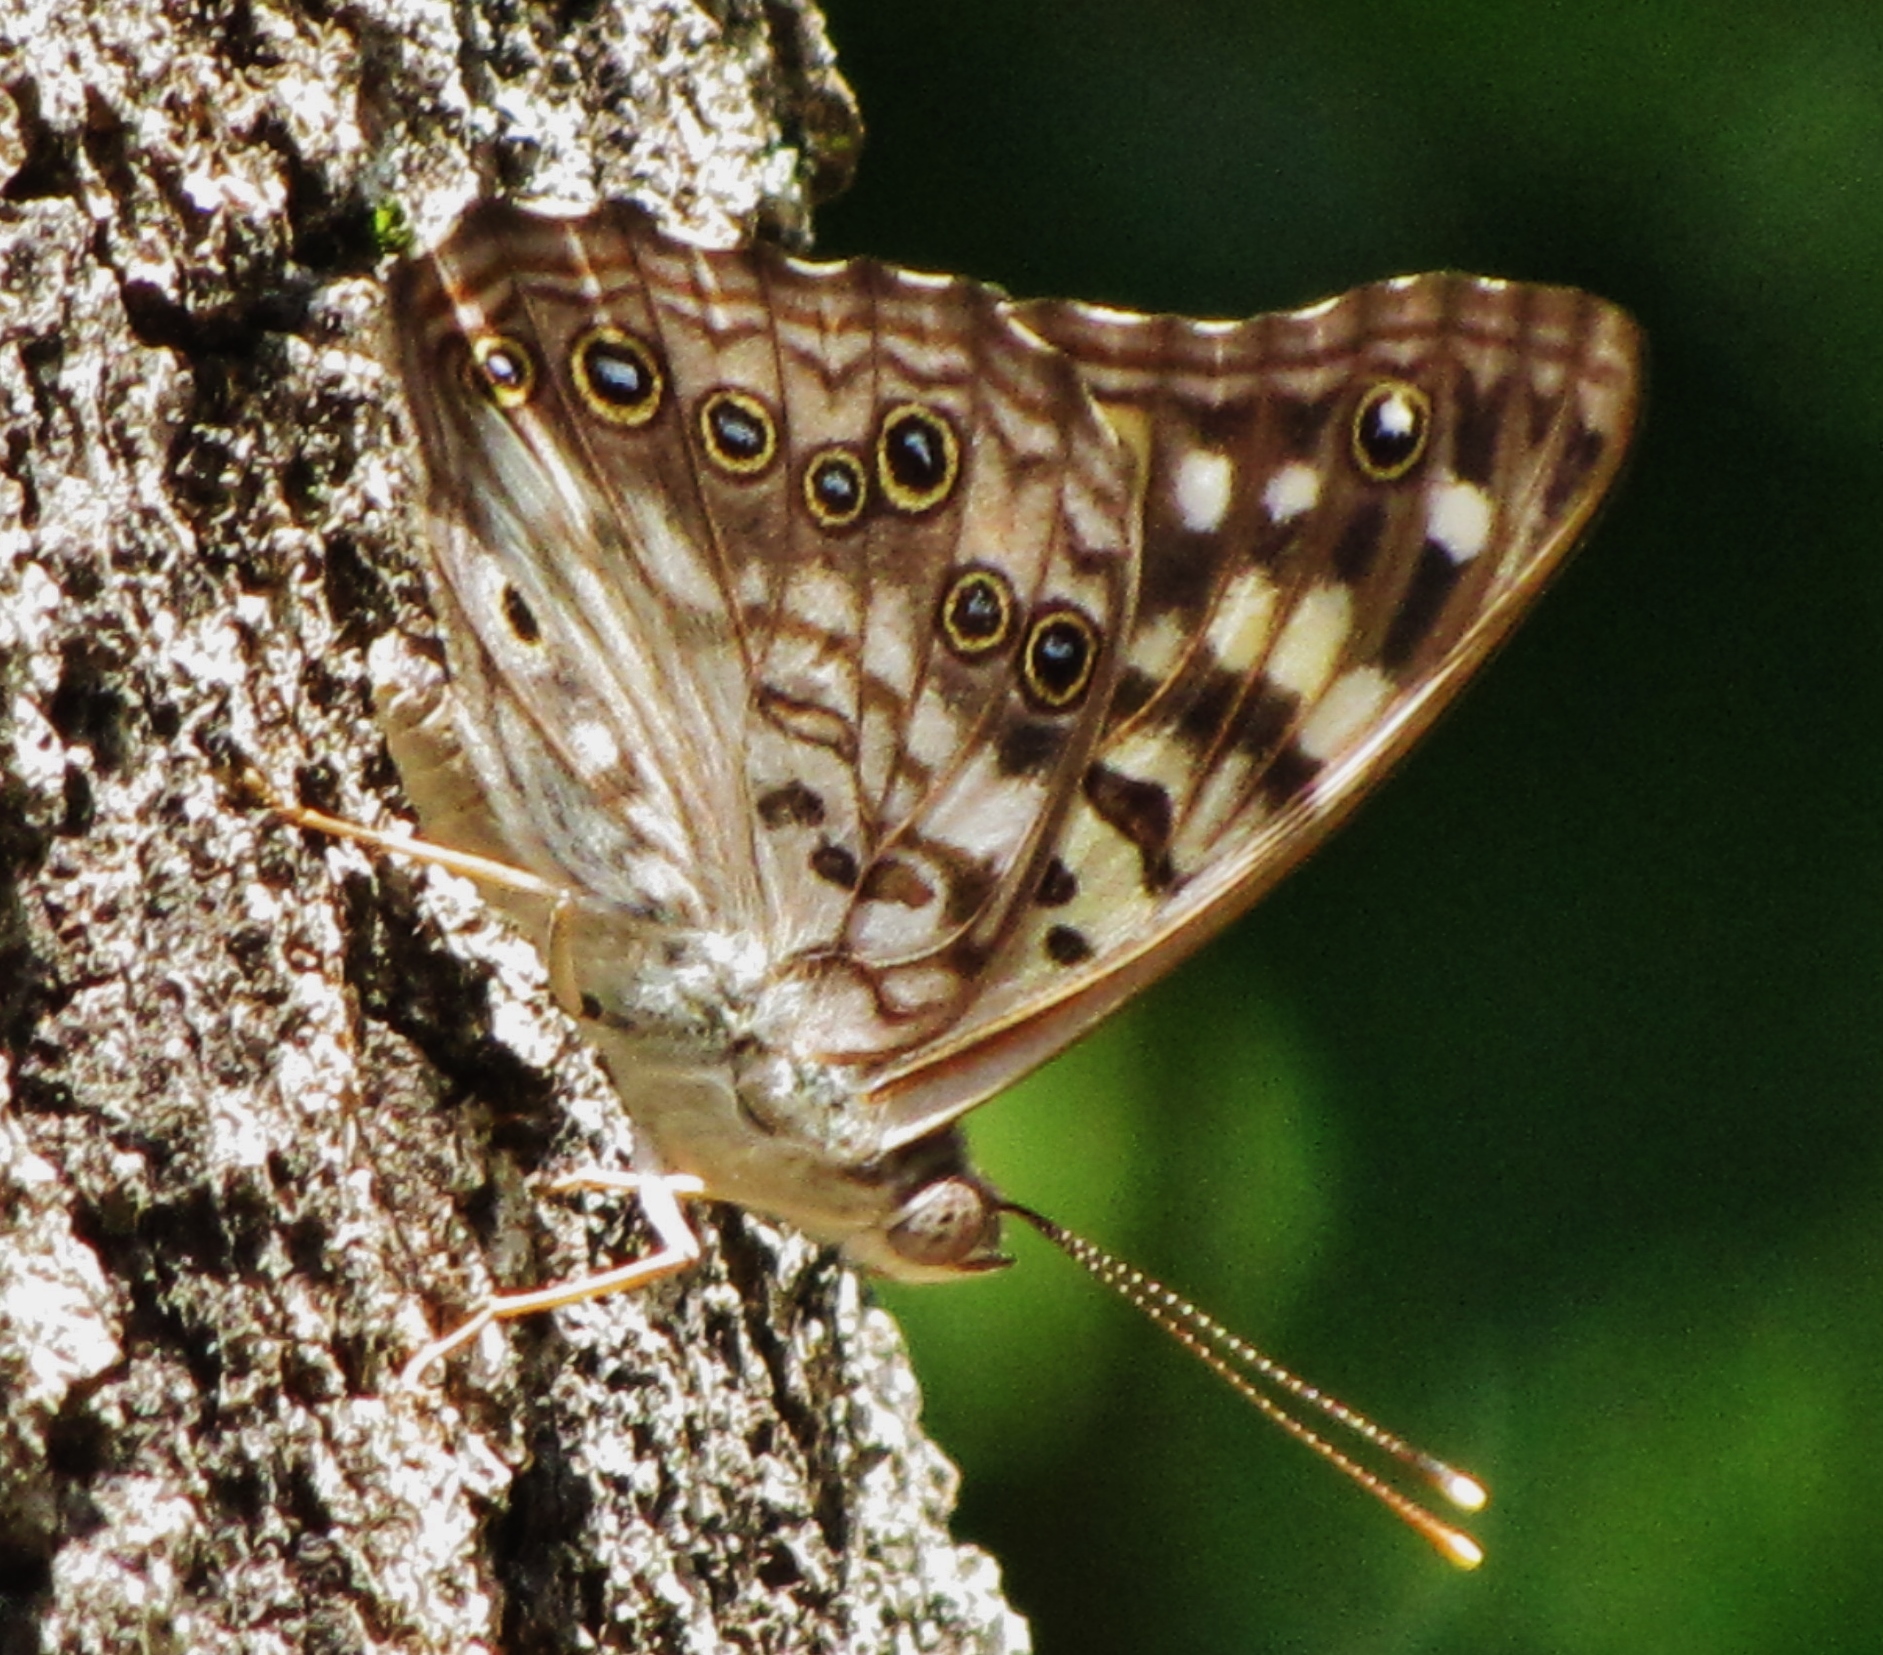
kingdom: Animalia
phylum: Arthropoda
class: Insecta
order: Lepidoptera
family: Nymphalidae
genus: Asterocampa
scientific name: Asterocampa celtis
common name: Hackberry emperor
